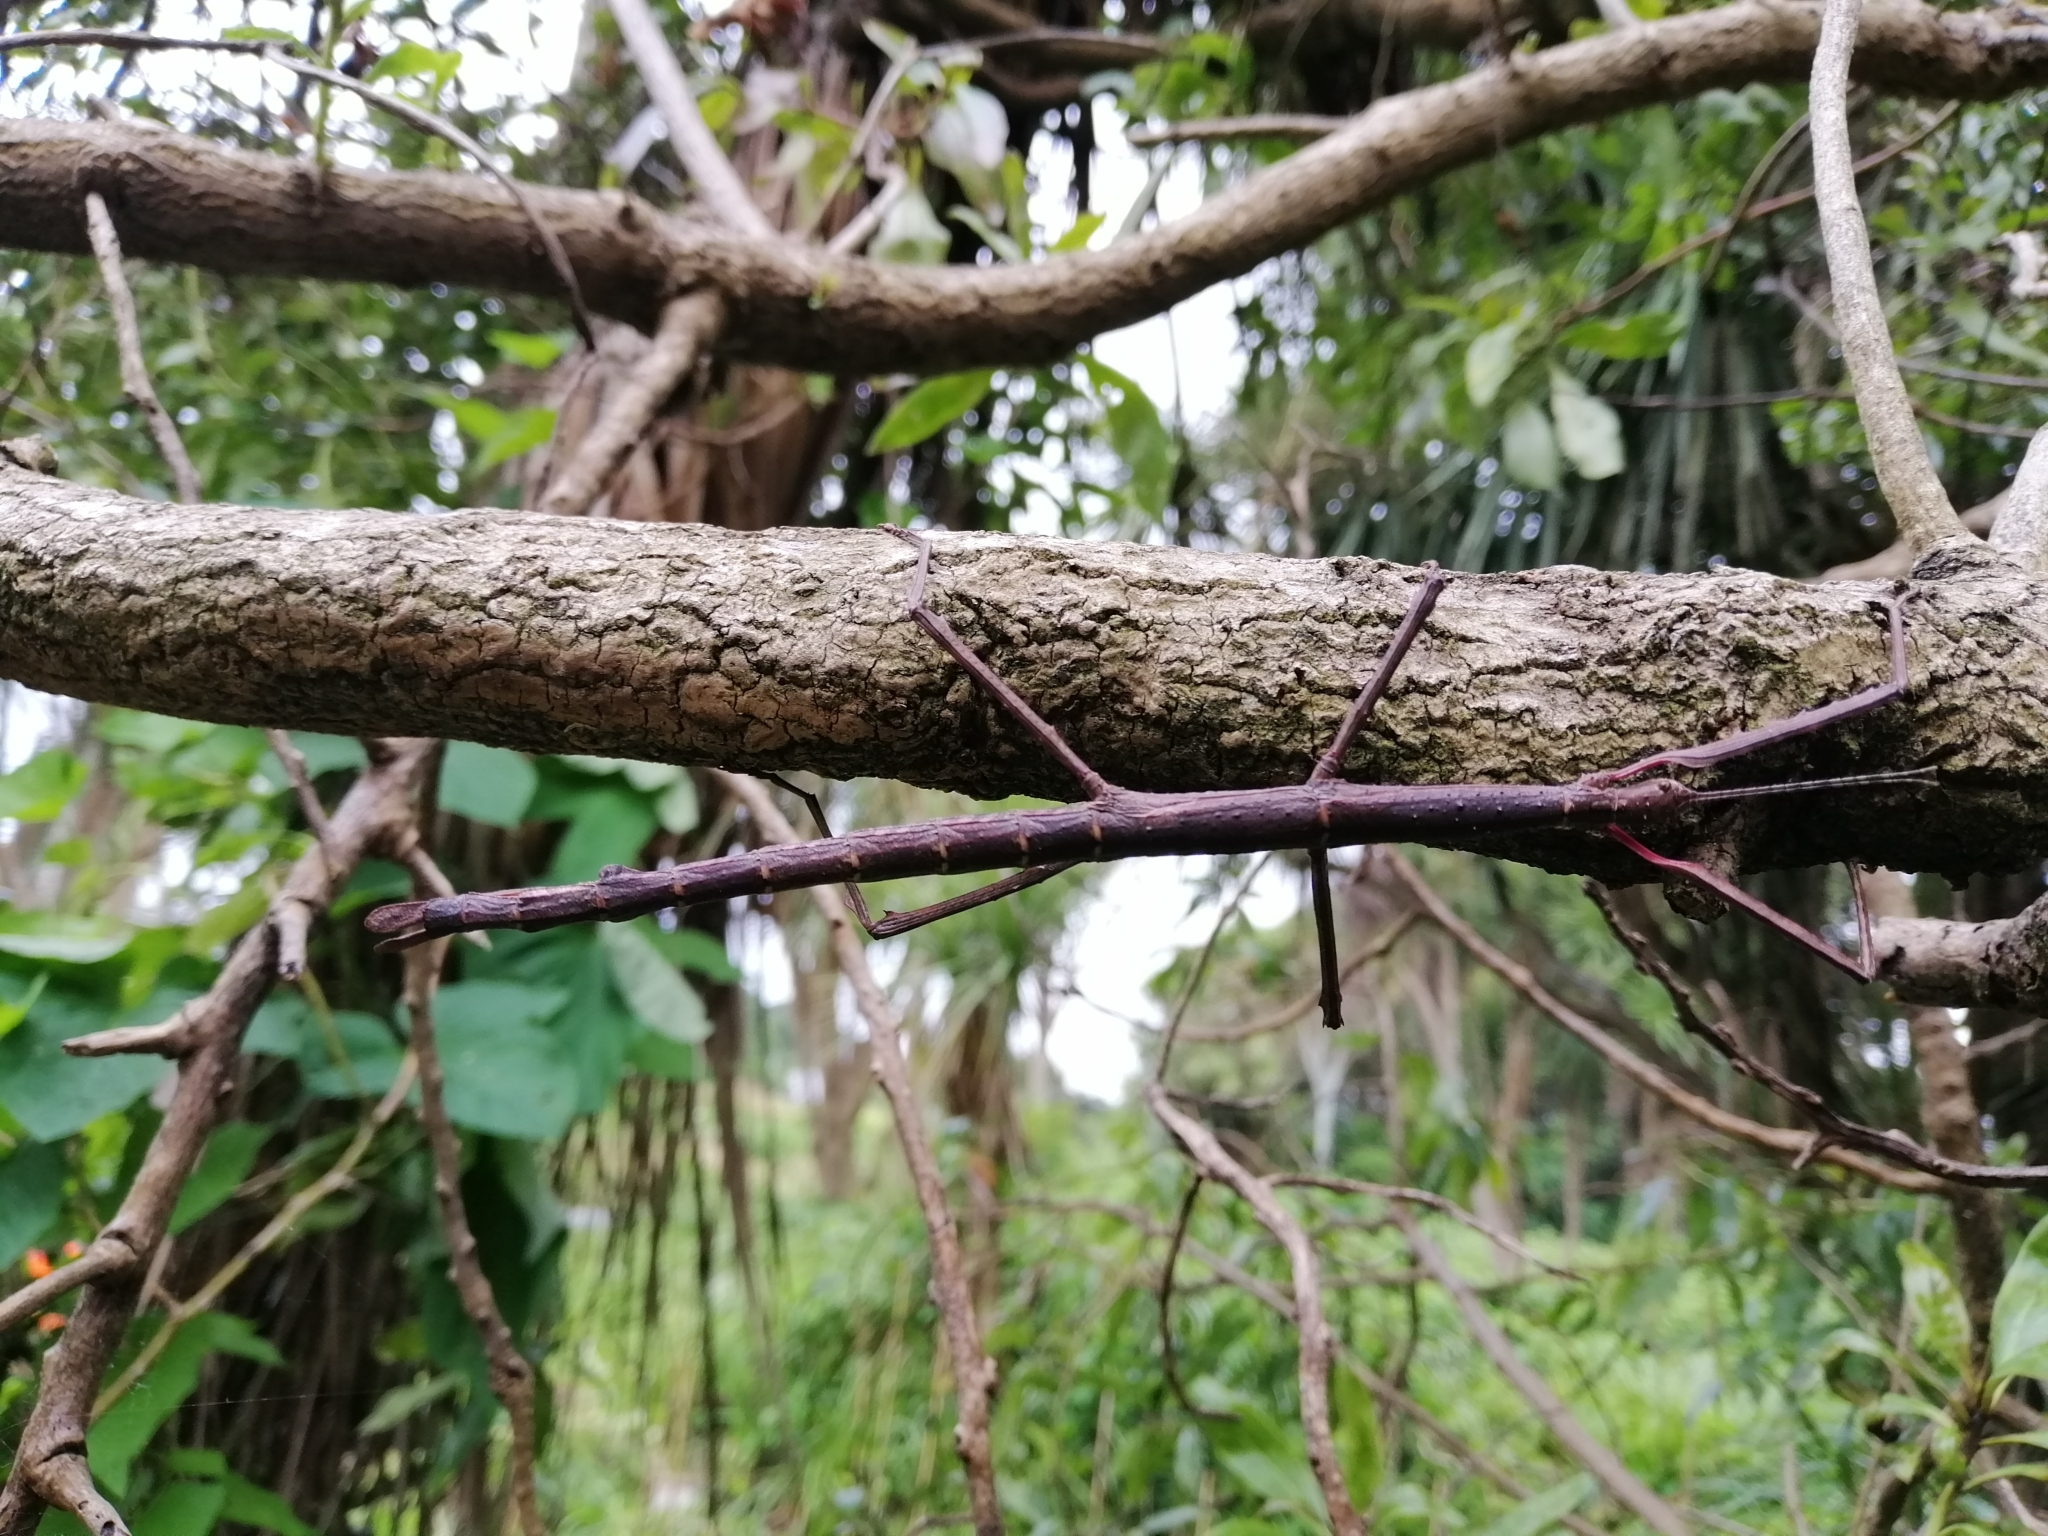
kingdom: Animalia
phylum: Arthropoda
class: Insecta
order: Phasmida
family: Phasmatidae
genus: Acanthoxyla
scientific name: Acanthoxyla inermis
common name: Unarmed stick insect
